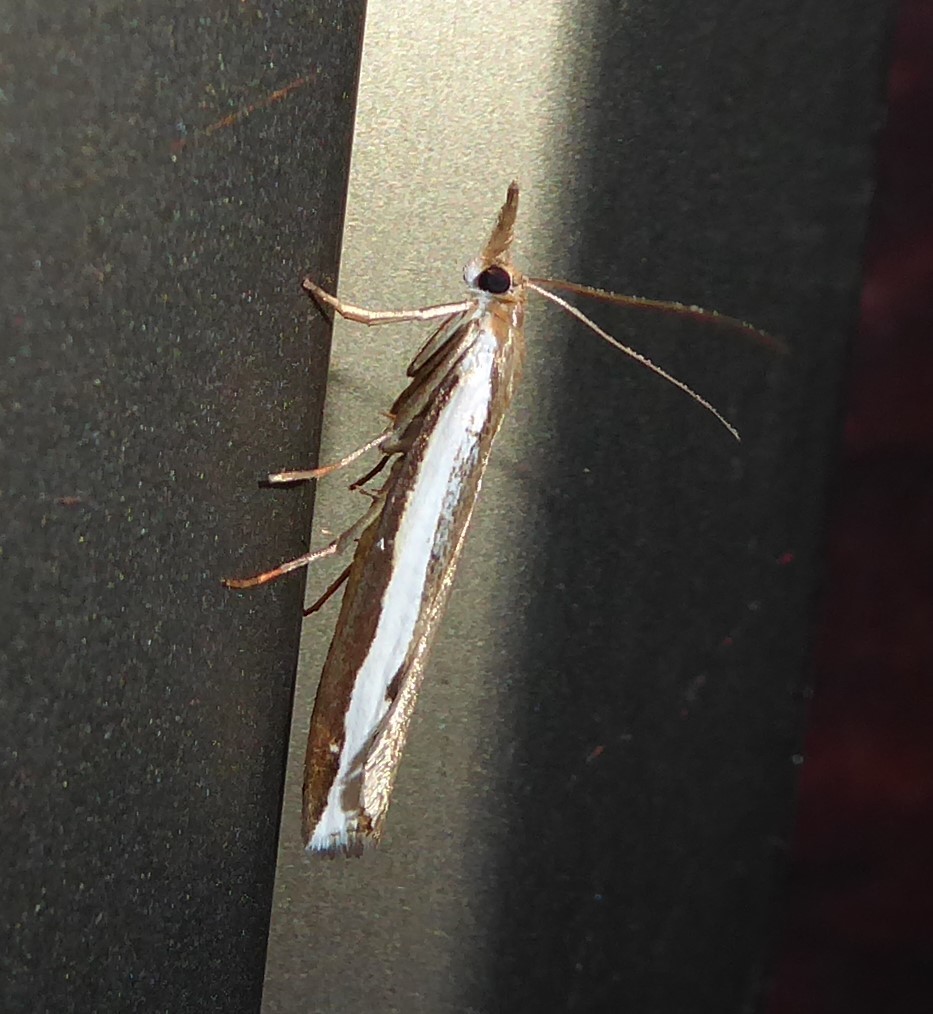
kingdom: Animalia
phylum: Arthropoda
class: Insecta
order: Lepidoptera
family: Crambidae
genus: Orocrambus
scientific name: Orocrambus flexuosellus
